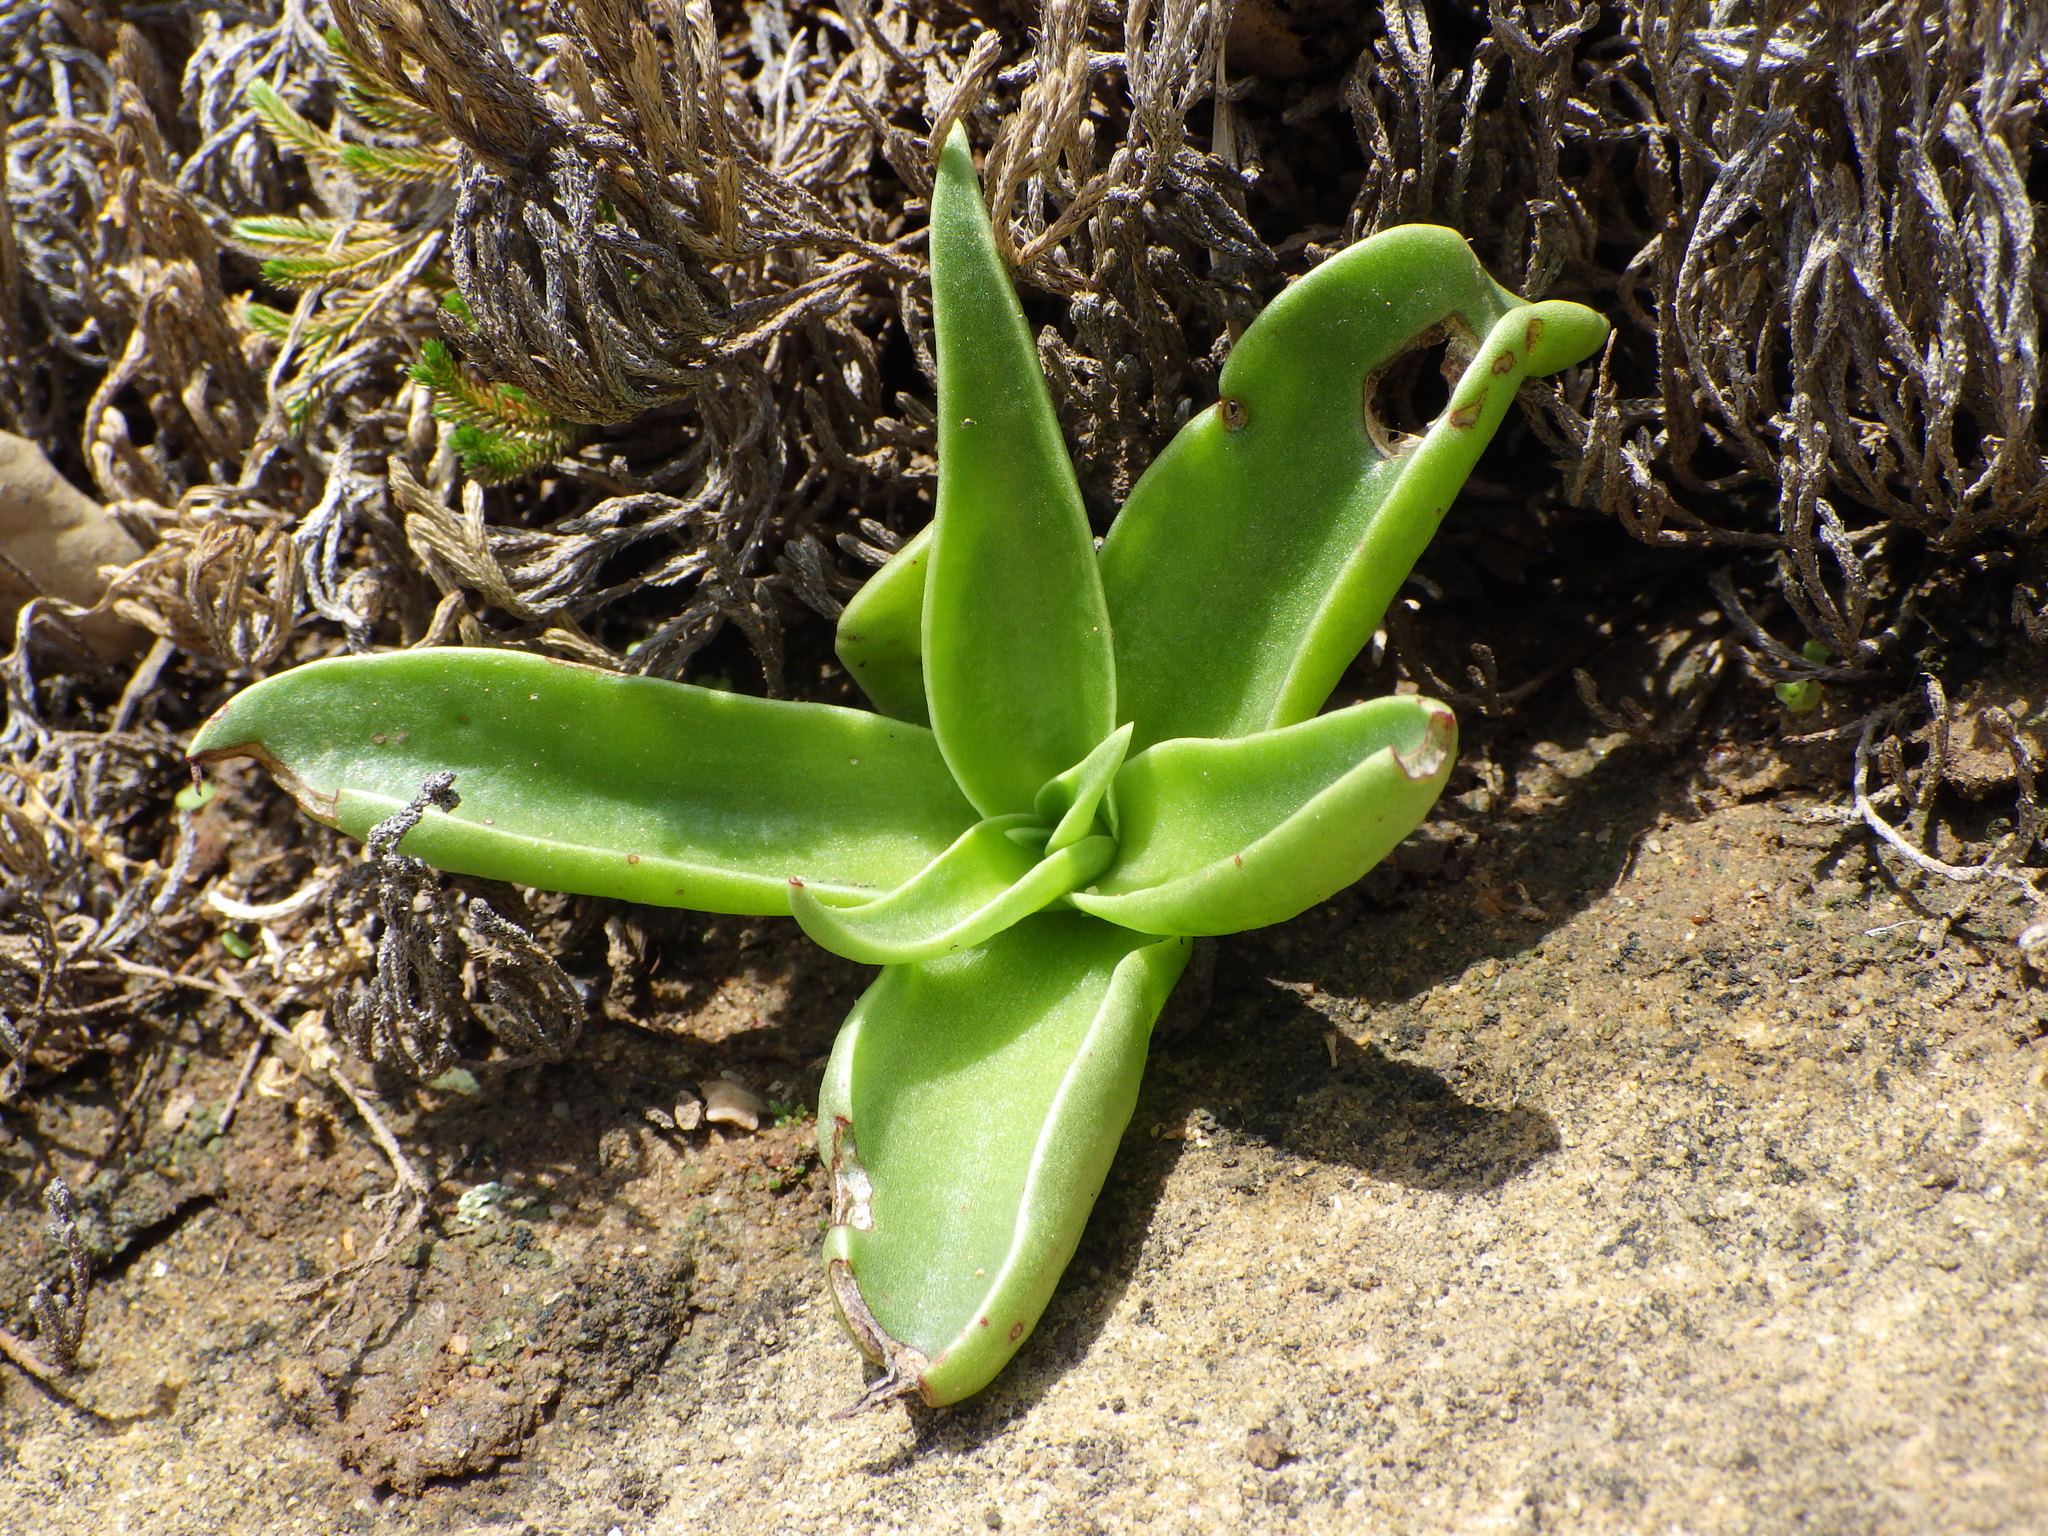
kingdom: Plantae
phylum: Tracheophyta
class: Magnoliopsida
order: Saxifragales
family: Crassulaceae
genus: Dudleya
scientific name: Dudleya lanceolata
